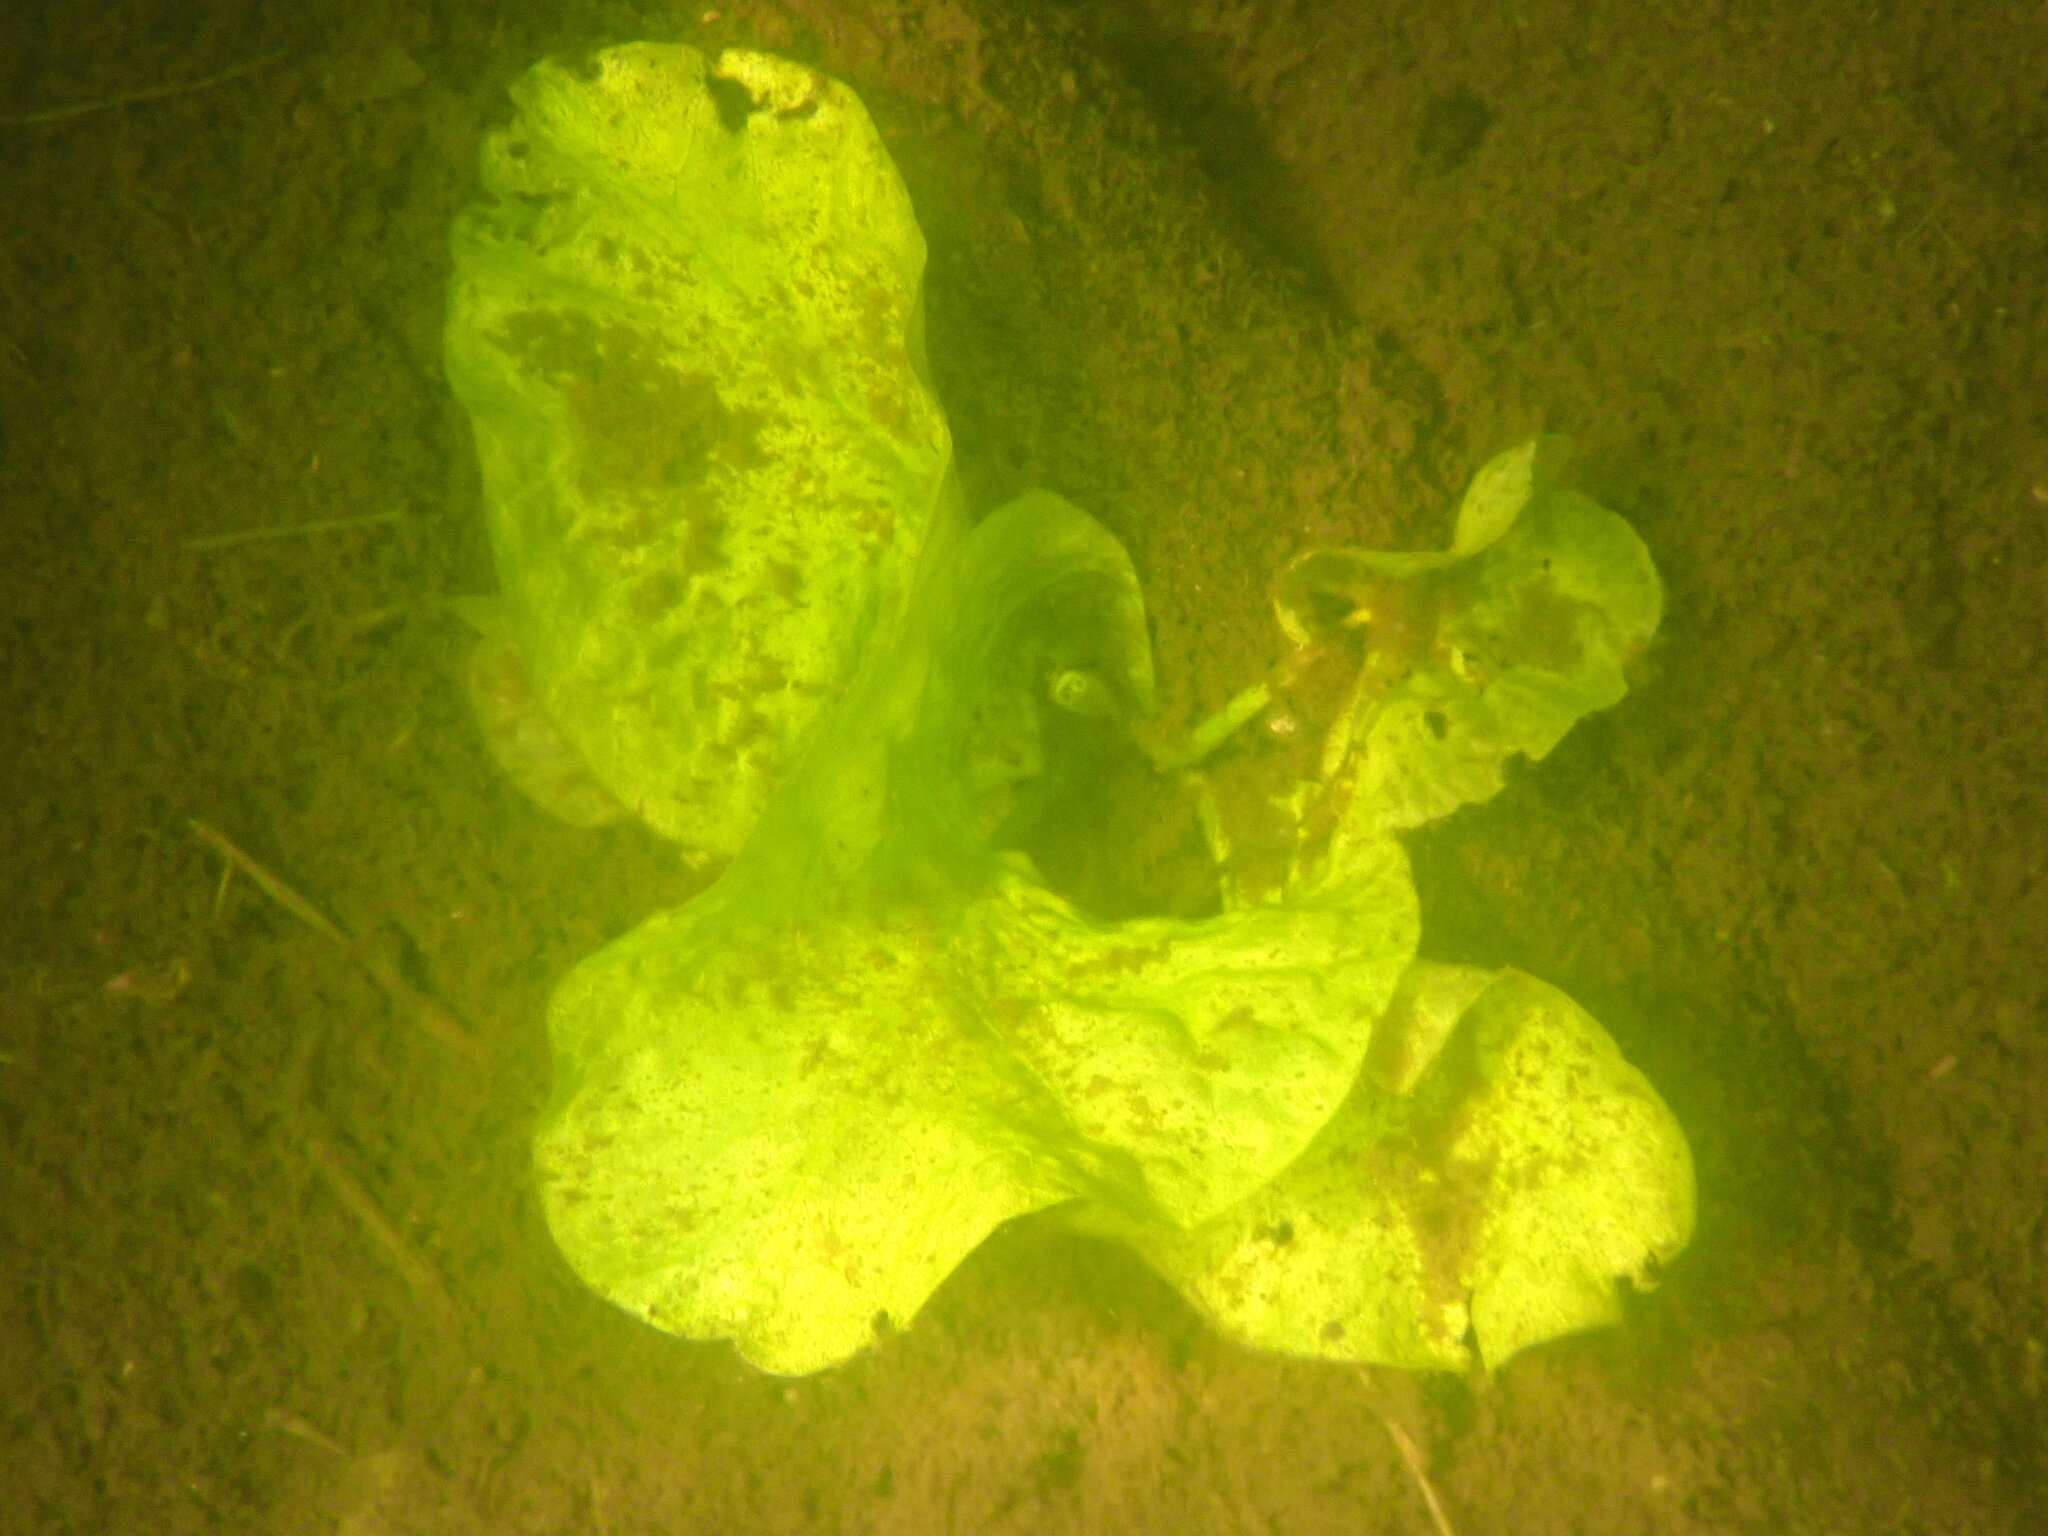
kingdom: Plantae
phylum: Tracheophyta
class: Magnoliopsida
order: Nymphaeales
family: Nymphaeaceae
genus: Nuphar
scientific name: Nuphar polysepala
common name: Rocky mountain cow-lily
